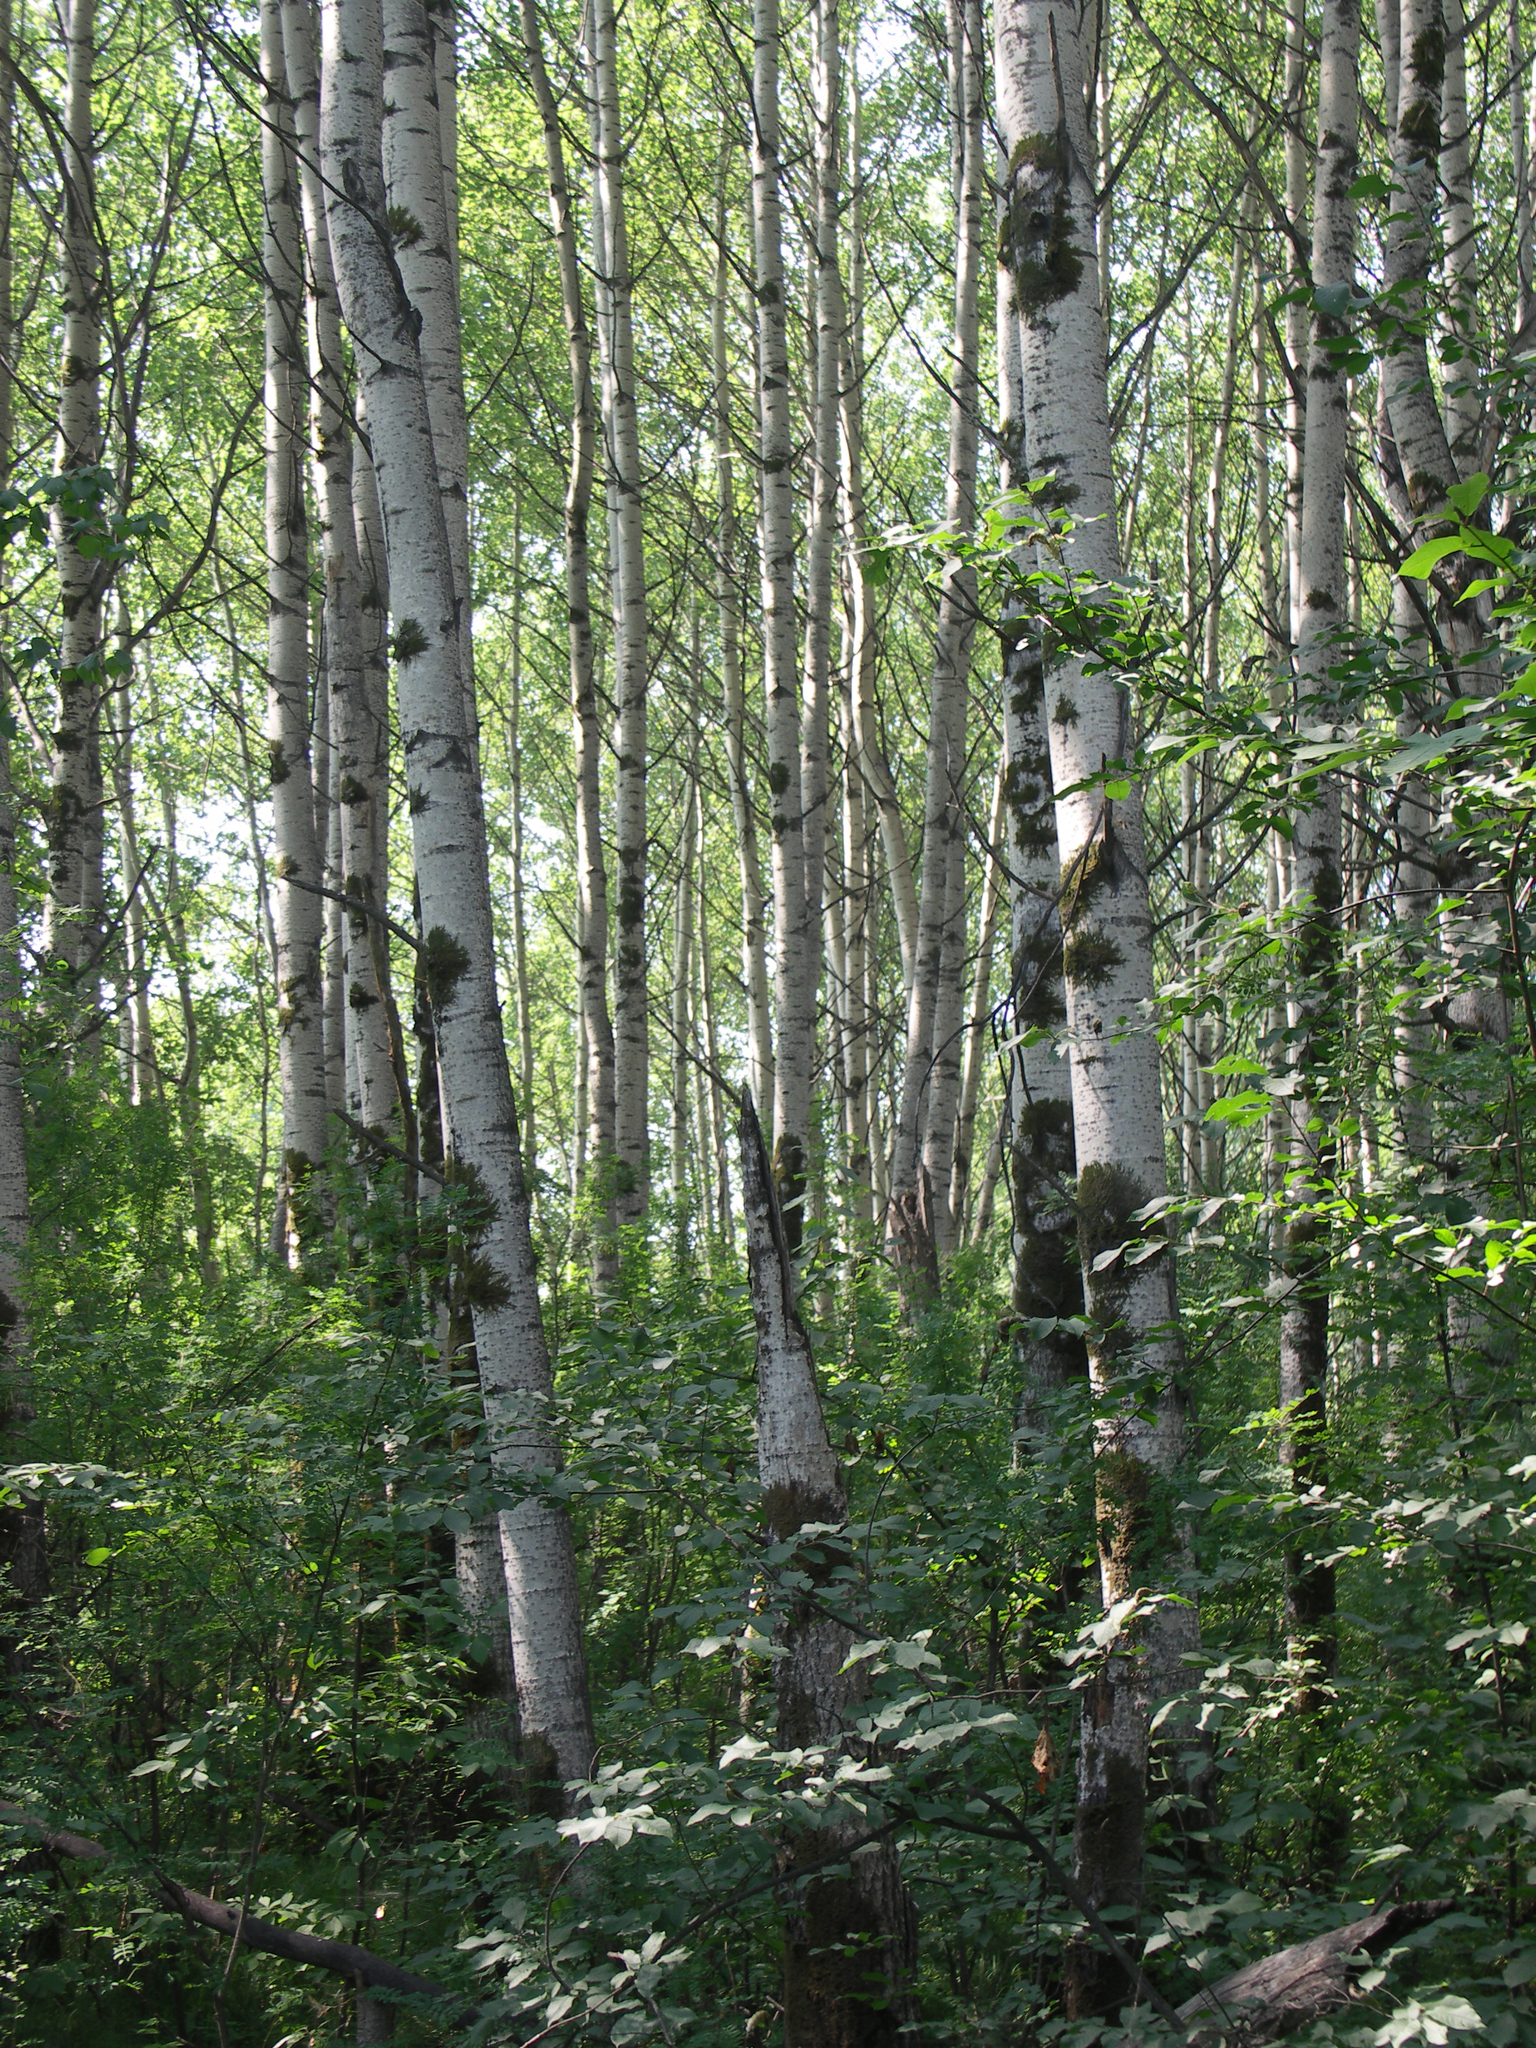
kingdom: Plantae
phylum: Tracheophyta
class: Magnoliopsida
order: Fagales
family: Betulaceae
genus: Betula
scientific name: Betula pubescens
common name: Downy birch
